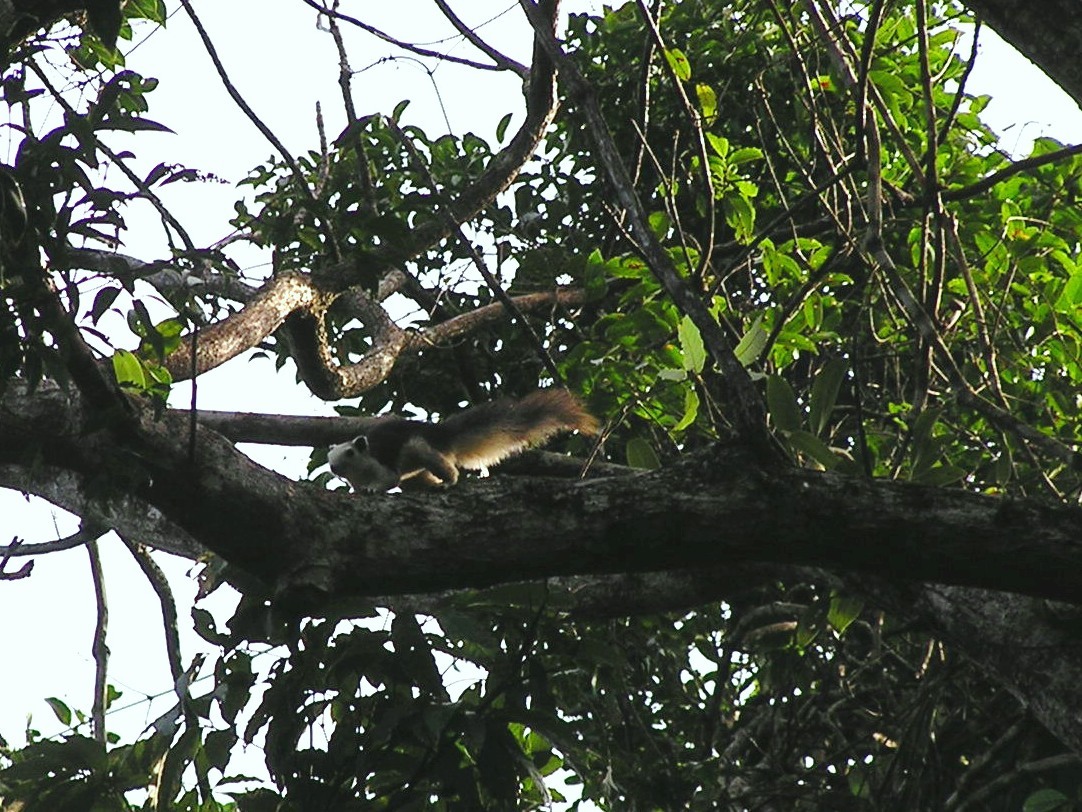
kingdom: Animalia
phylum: Chordata
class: Mammalia
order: Rodentia
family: Sciuridae
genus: Callosciurus
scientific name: Callosciurus finlaysonii
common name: Finlayson's squirrel
